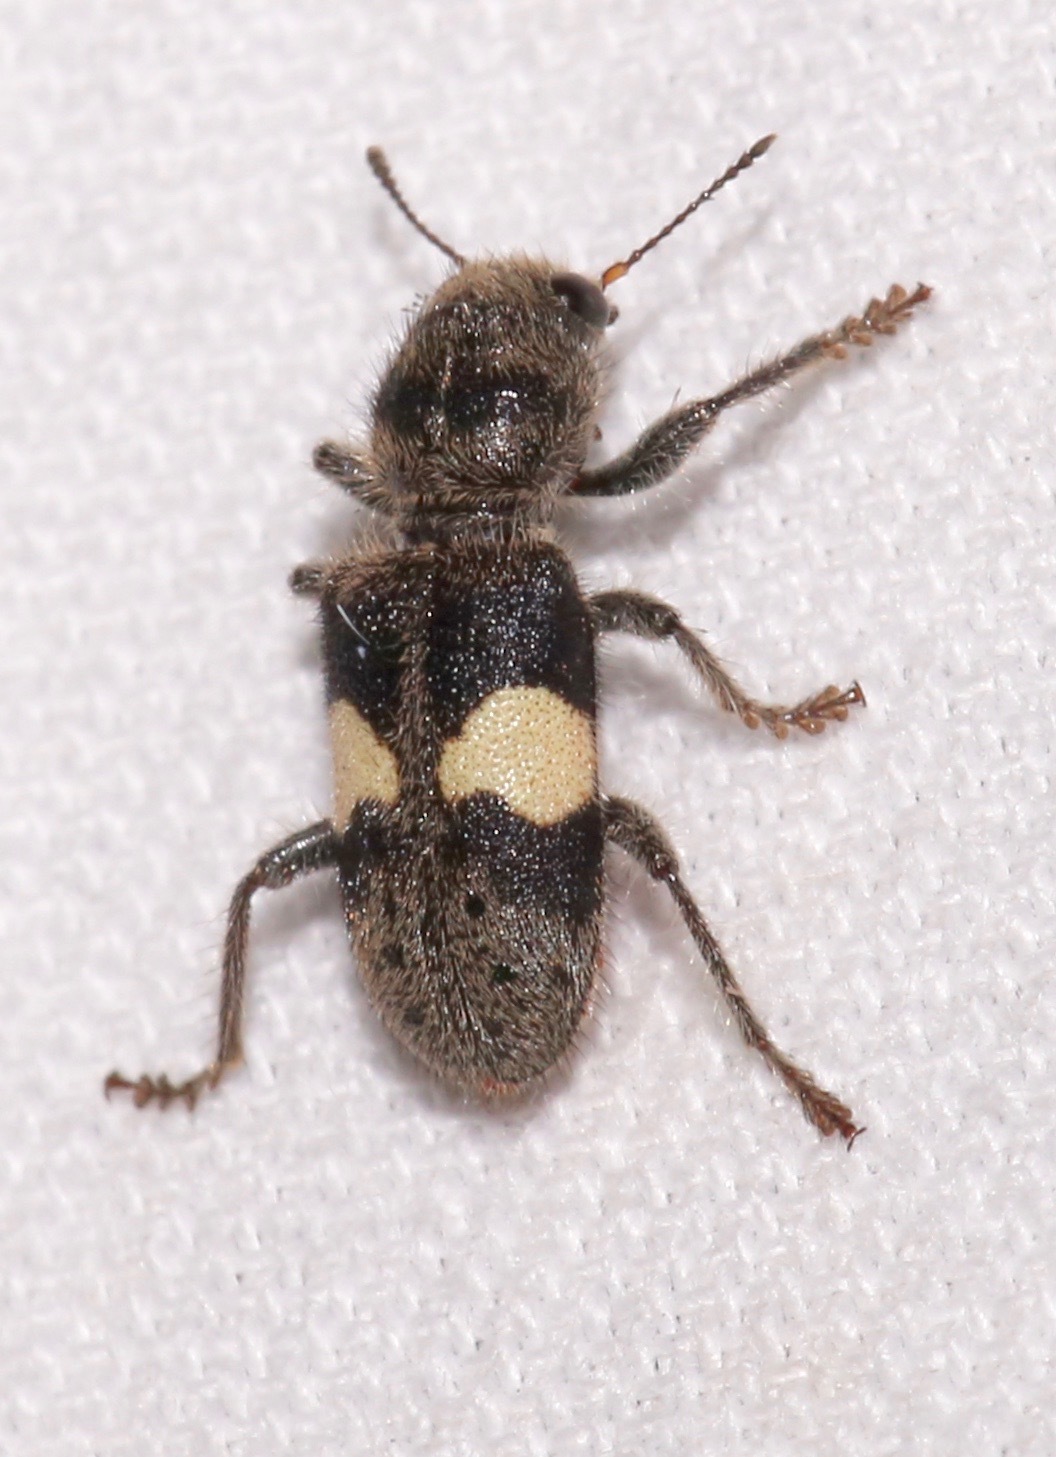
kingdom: Animalia
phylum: Arthropoda
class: Insecta
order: Coleoptera
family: Cleridae
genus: Enoclerus
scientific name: Enoclerus luscus
